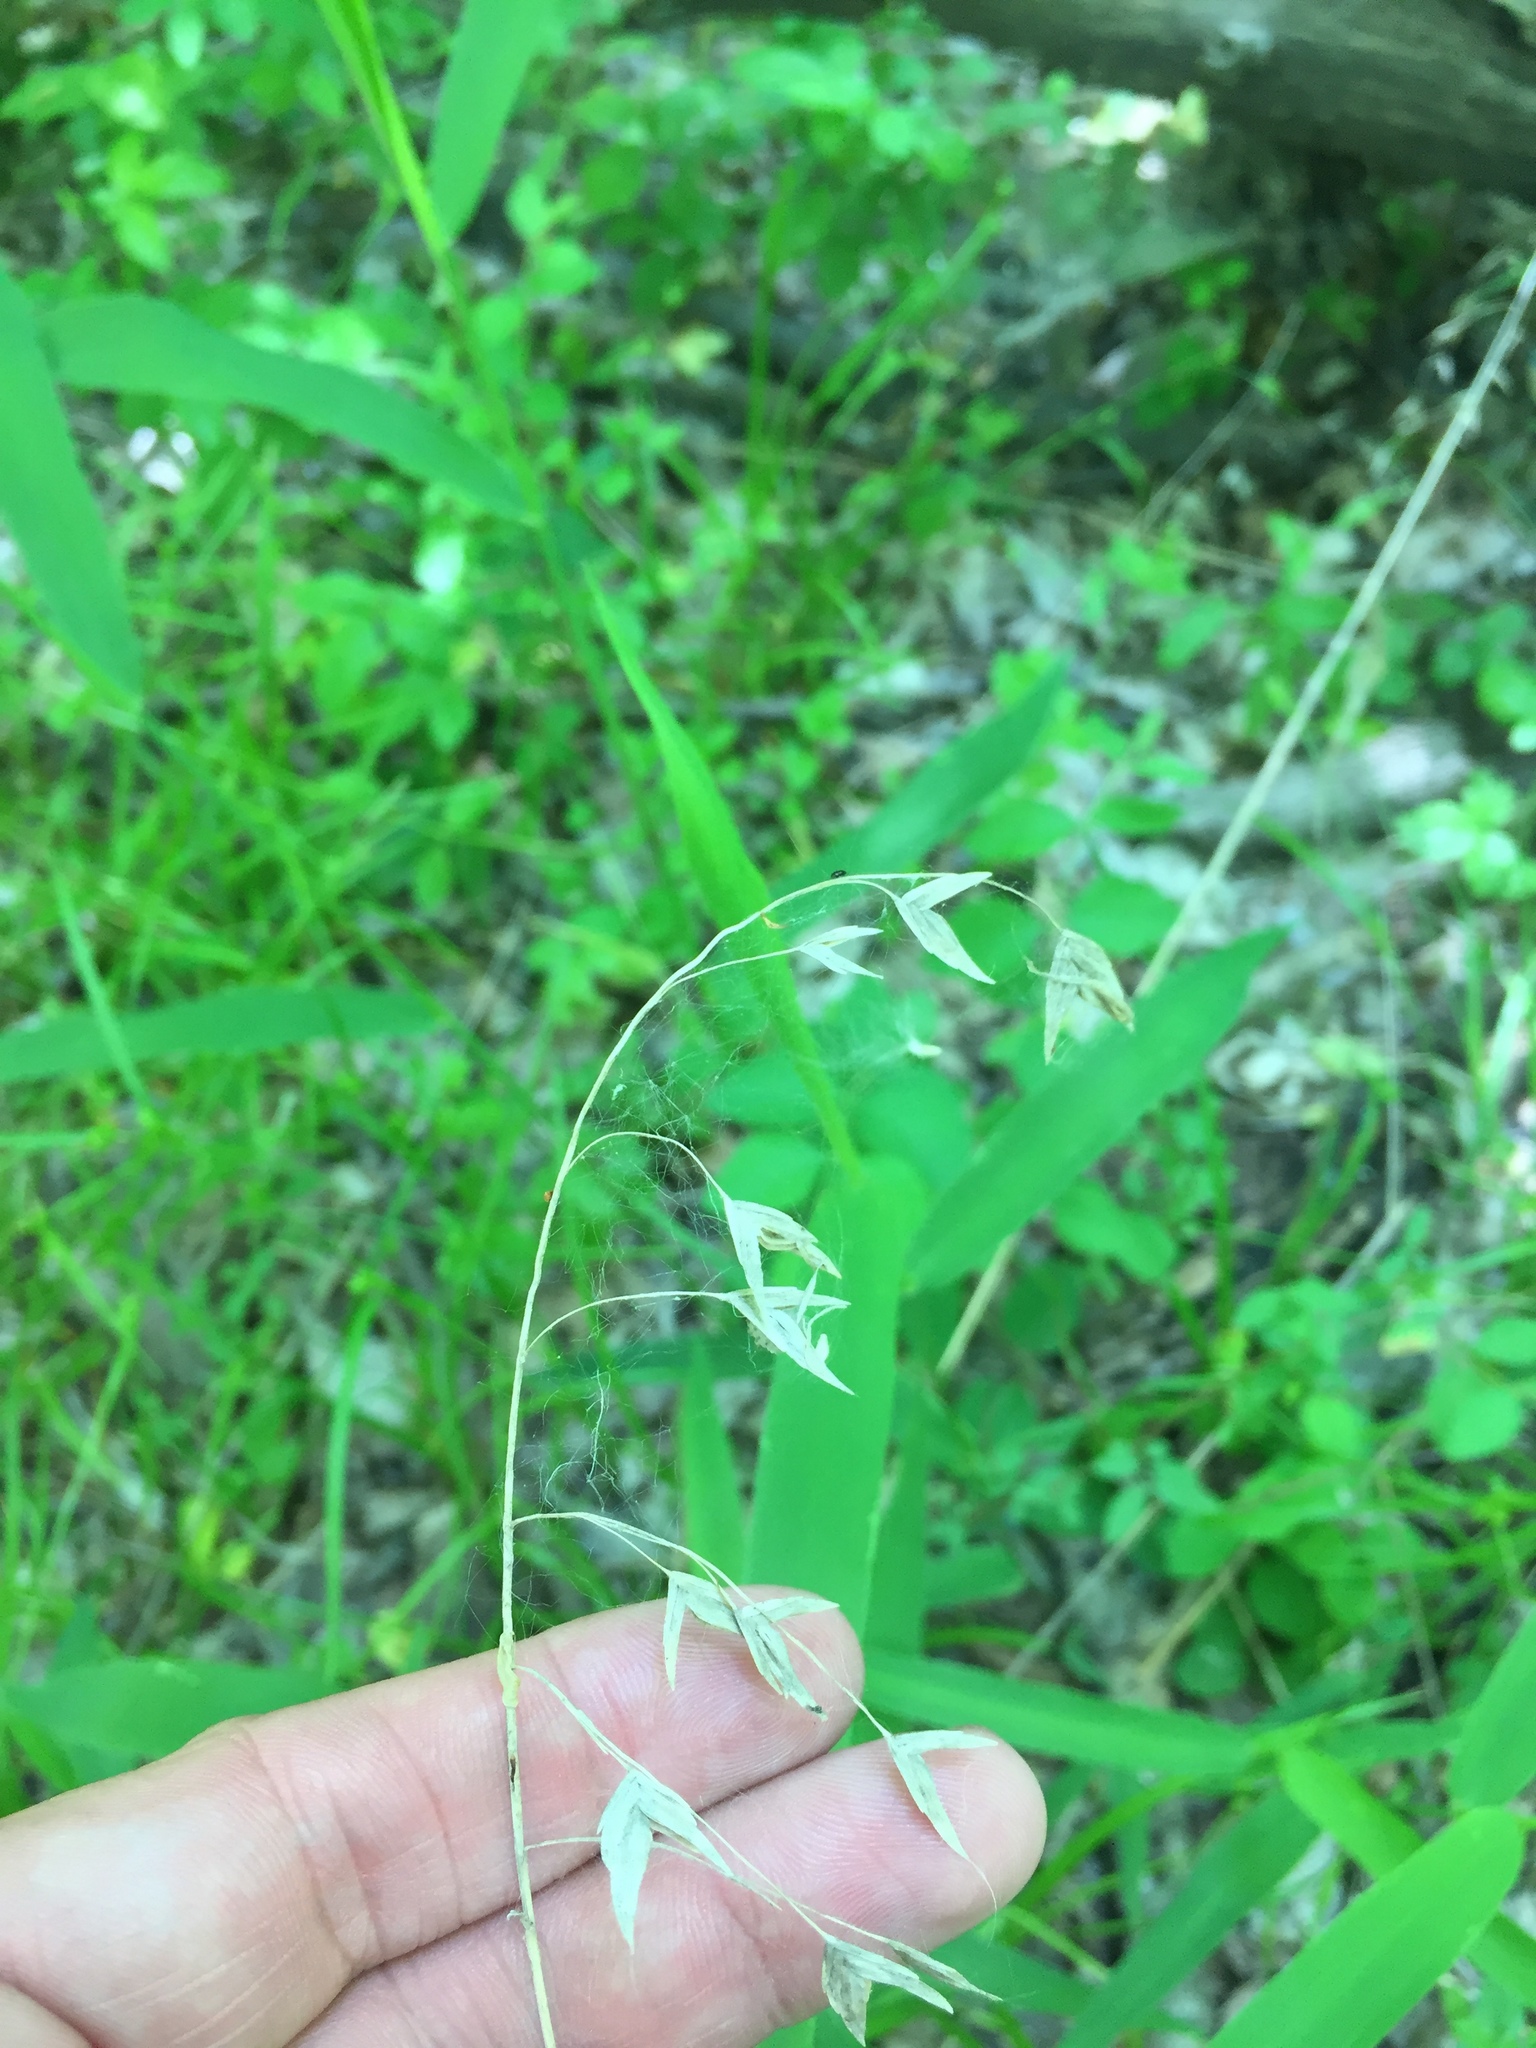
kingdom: Plantae
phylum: Tracheophyta
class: Liliopsida
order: Poales
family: Poaceae
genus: Chasmanthium
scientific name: Chasmanthium latifolium
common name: Broad-leaved chasmanthium
